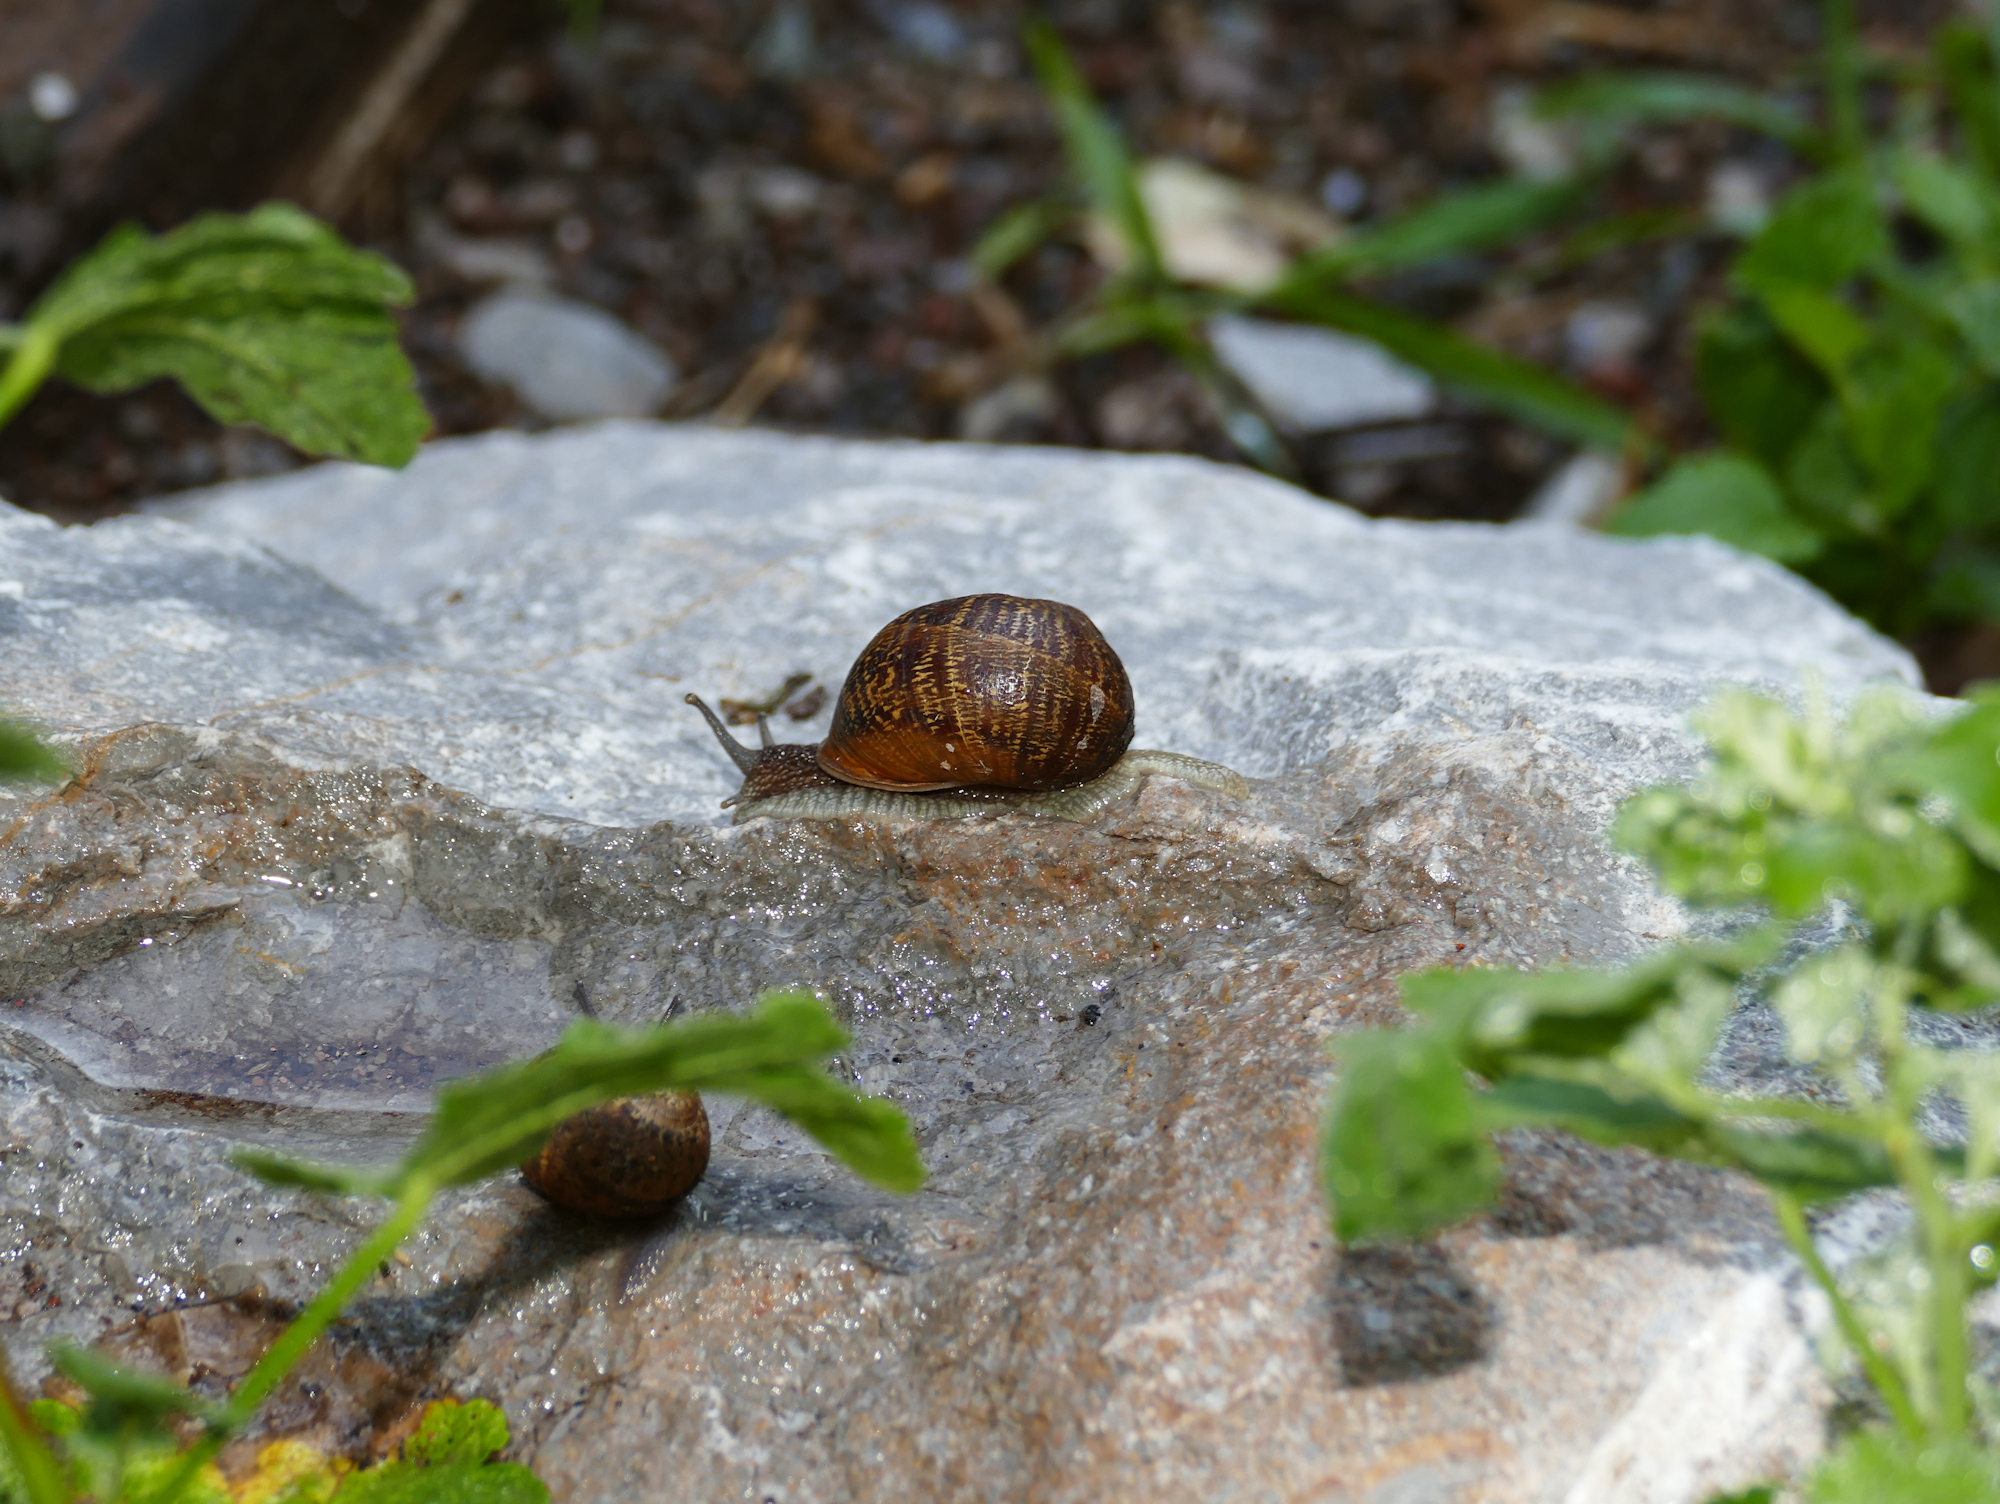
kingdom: Animalia
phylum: Mollusca
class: Gastropoda
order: Stylommatophora
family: Helicidae
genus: Cornu
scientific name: Cornu aspersum
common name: Brown garden snail
